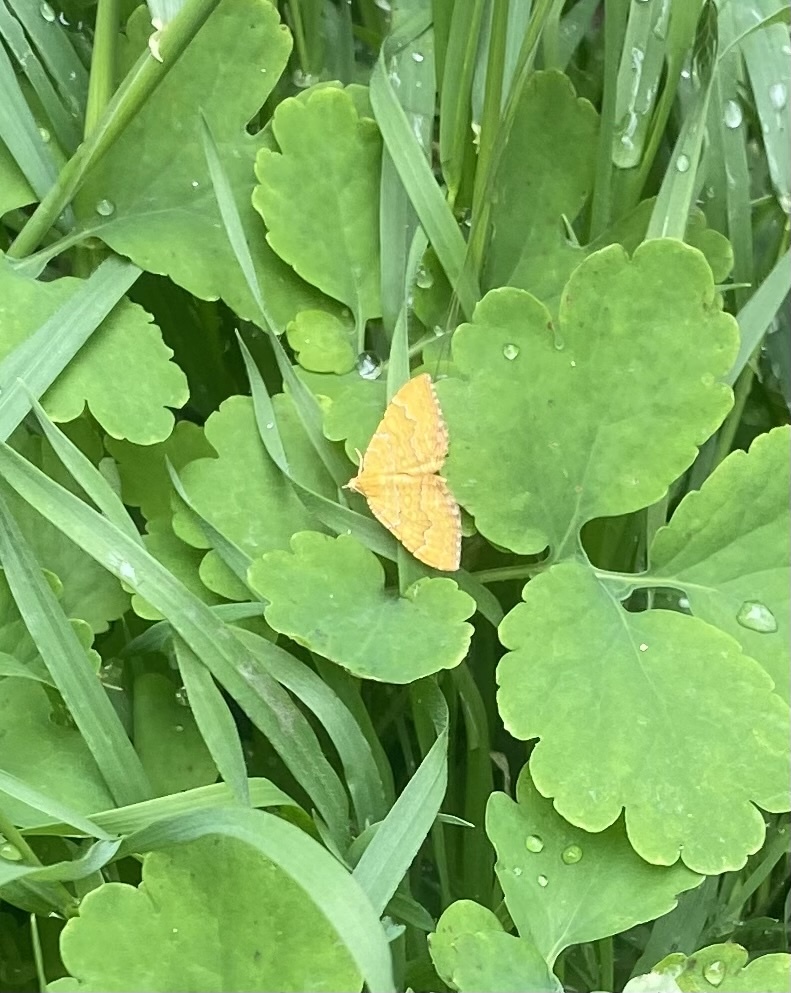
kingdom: Animalia
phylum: Arthropoda
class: Insecta
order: Lepidoptera
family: Geometridae
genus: Camptogramma
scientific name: Camptogramma bilineata
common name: Yellow shell
